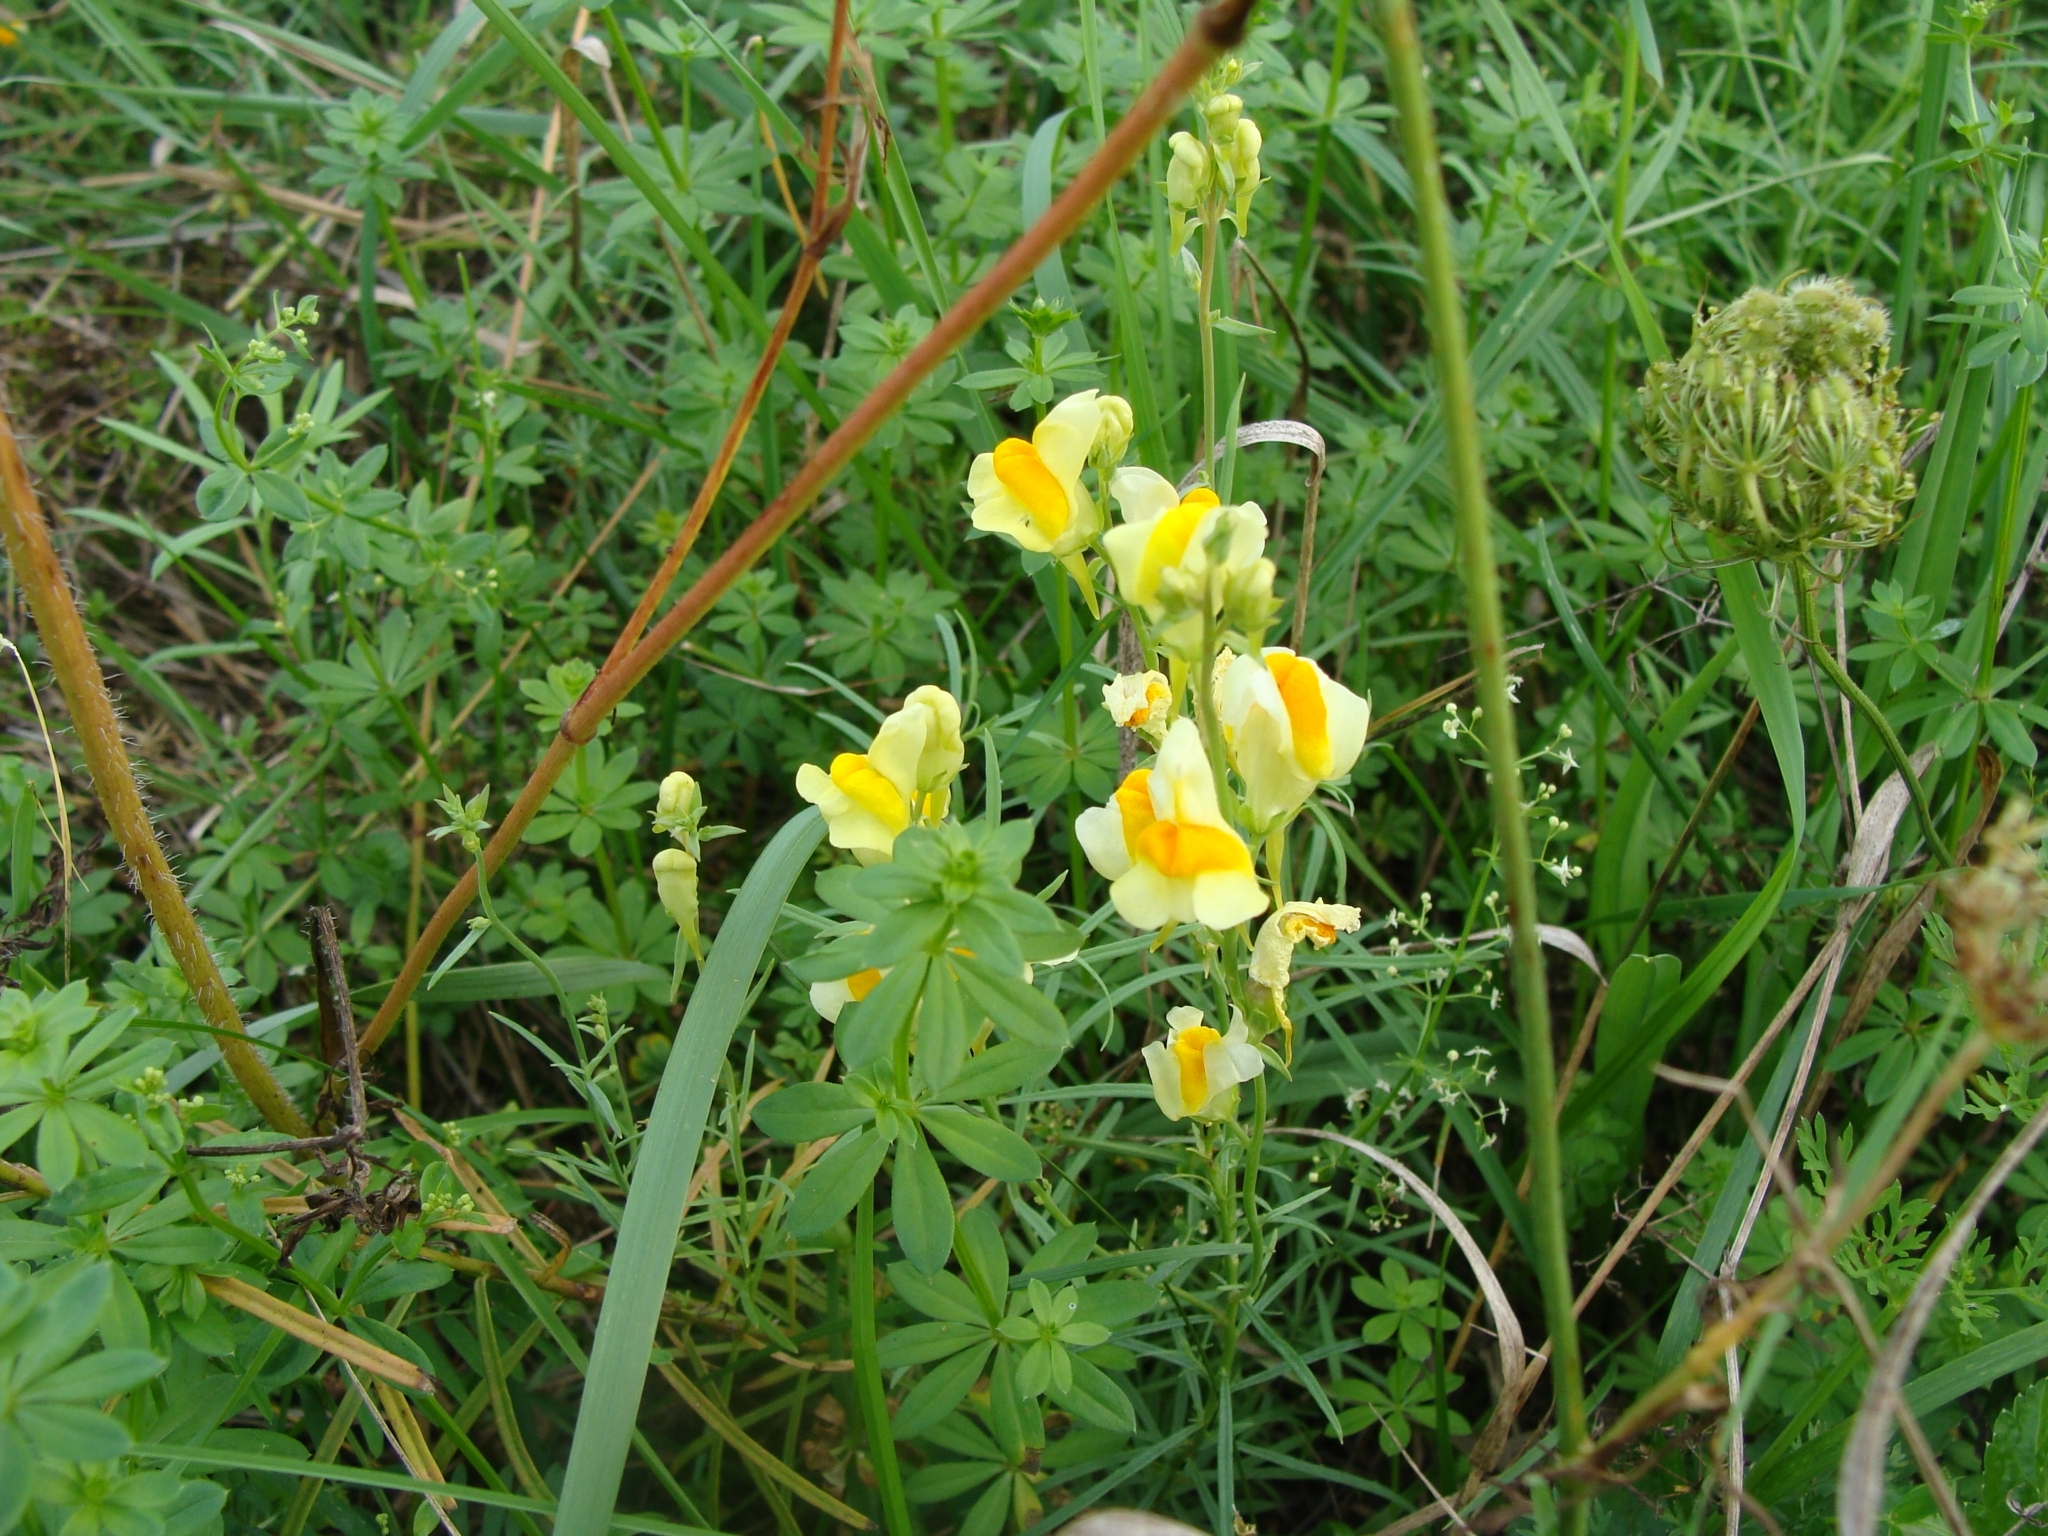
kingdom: Plantae
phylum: Tracheophyta
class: Magnoliopsida
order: Lamiales
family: Plantaginaceae
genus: Linaria
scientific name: Linaria vulgaris
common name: Butter and eggs
